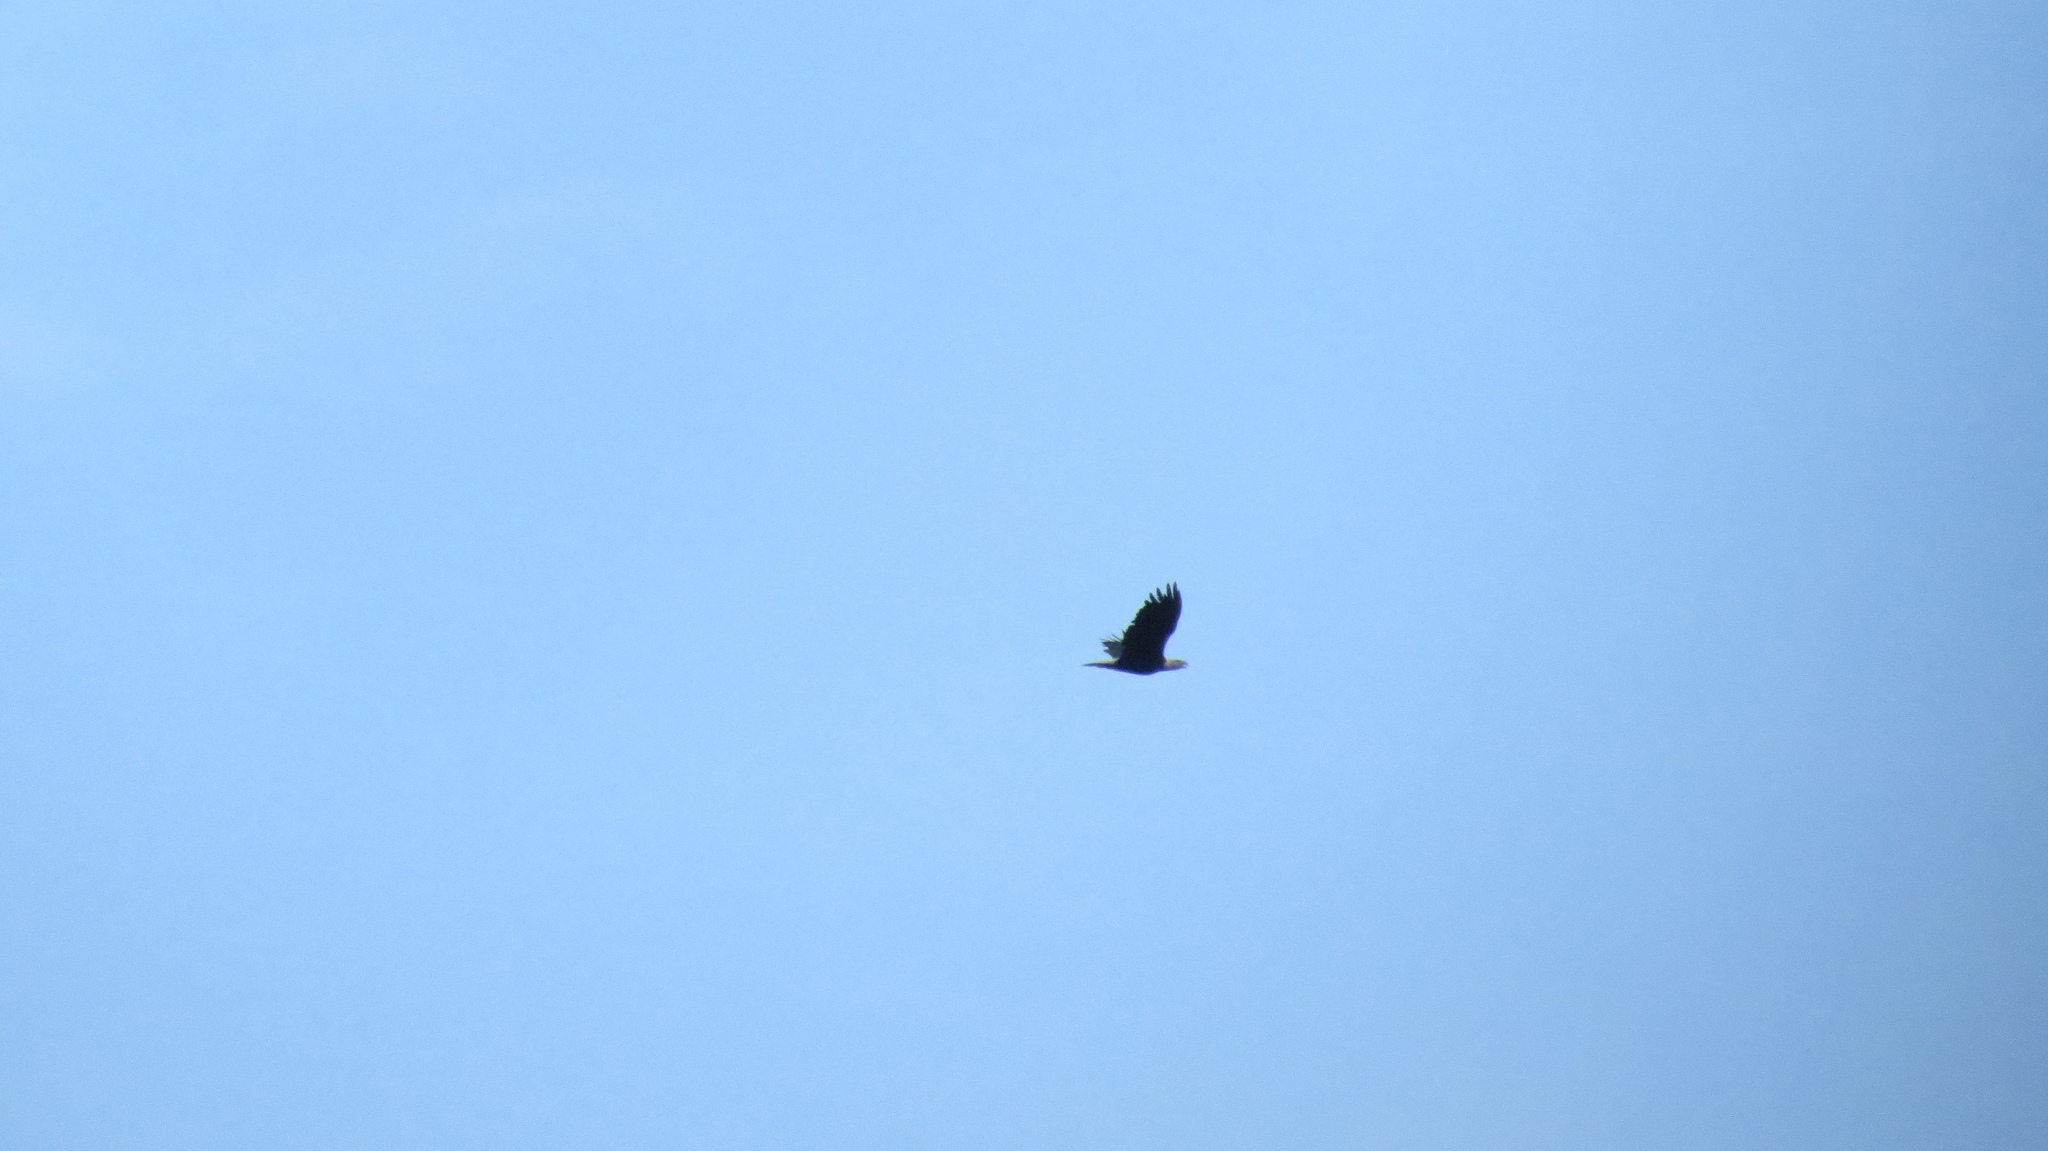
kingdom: Animalia
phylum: Chordata
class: Aves
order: Accipitriformes
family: Accipitridae
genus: Haliaeetus
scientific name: Haliaeetus leucocephalus
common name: Bald eagle
